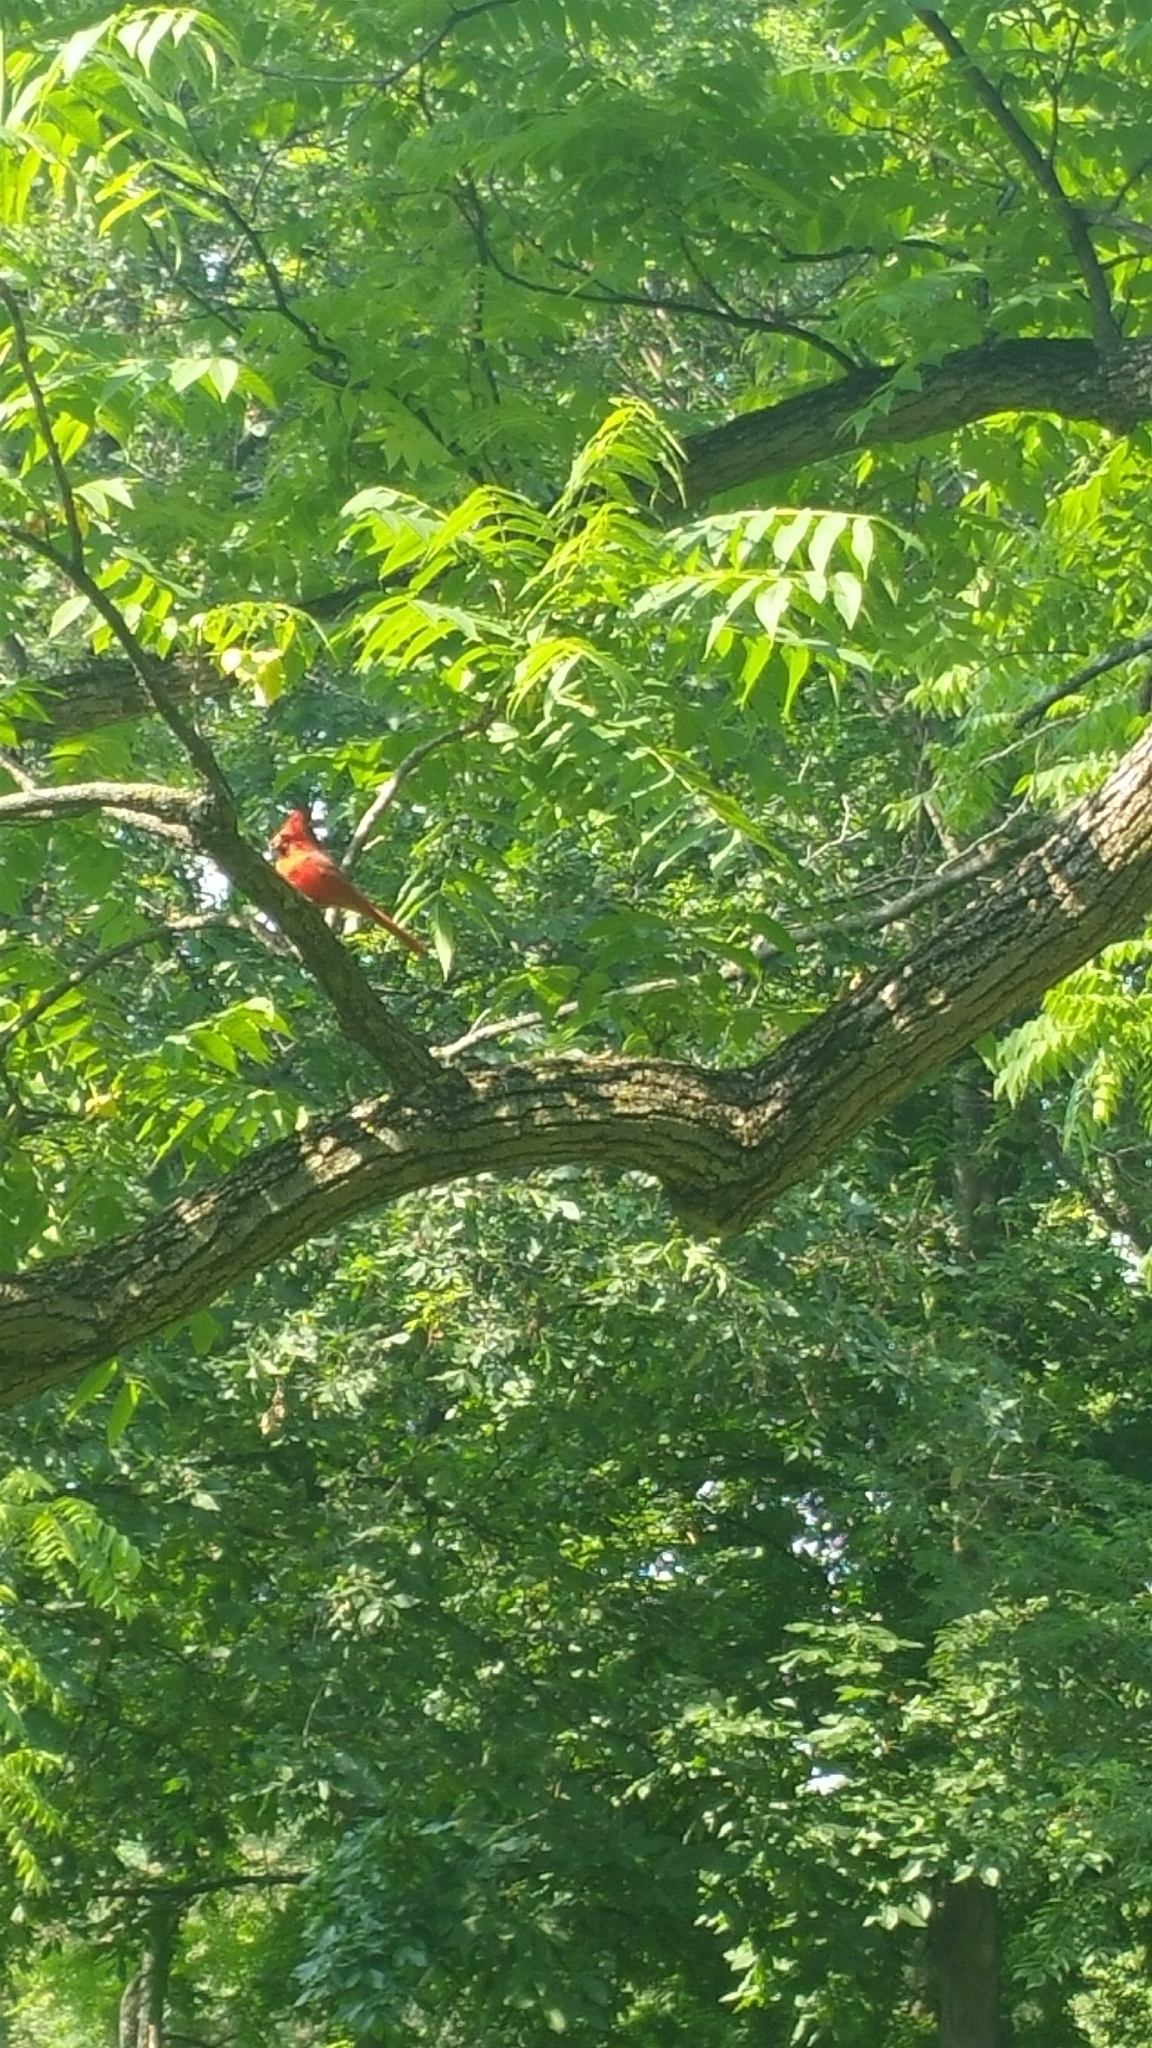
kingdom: Animalia
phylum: Chordata
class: Aves
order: Passeriformes
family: Cardinalidae
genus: Cardinalis
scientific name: Cardinalis cardinalis
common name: Northern cardinal
